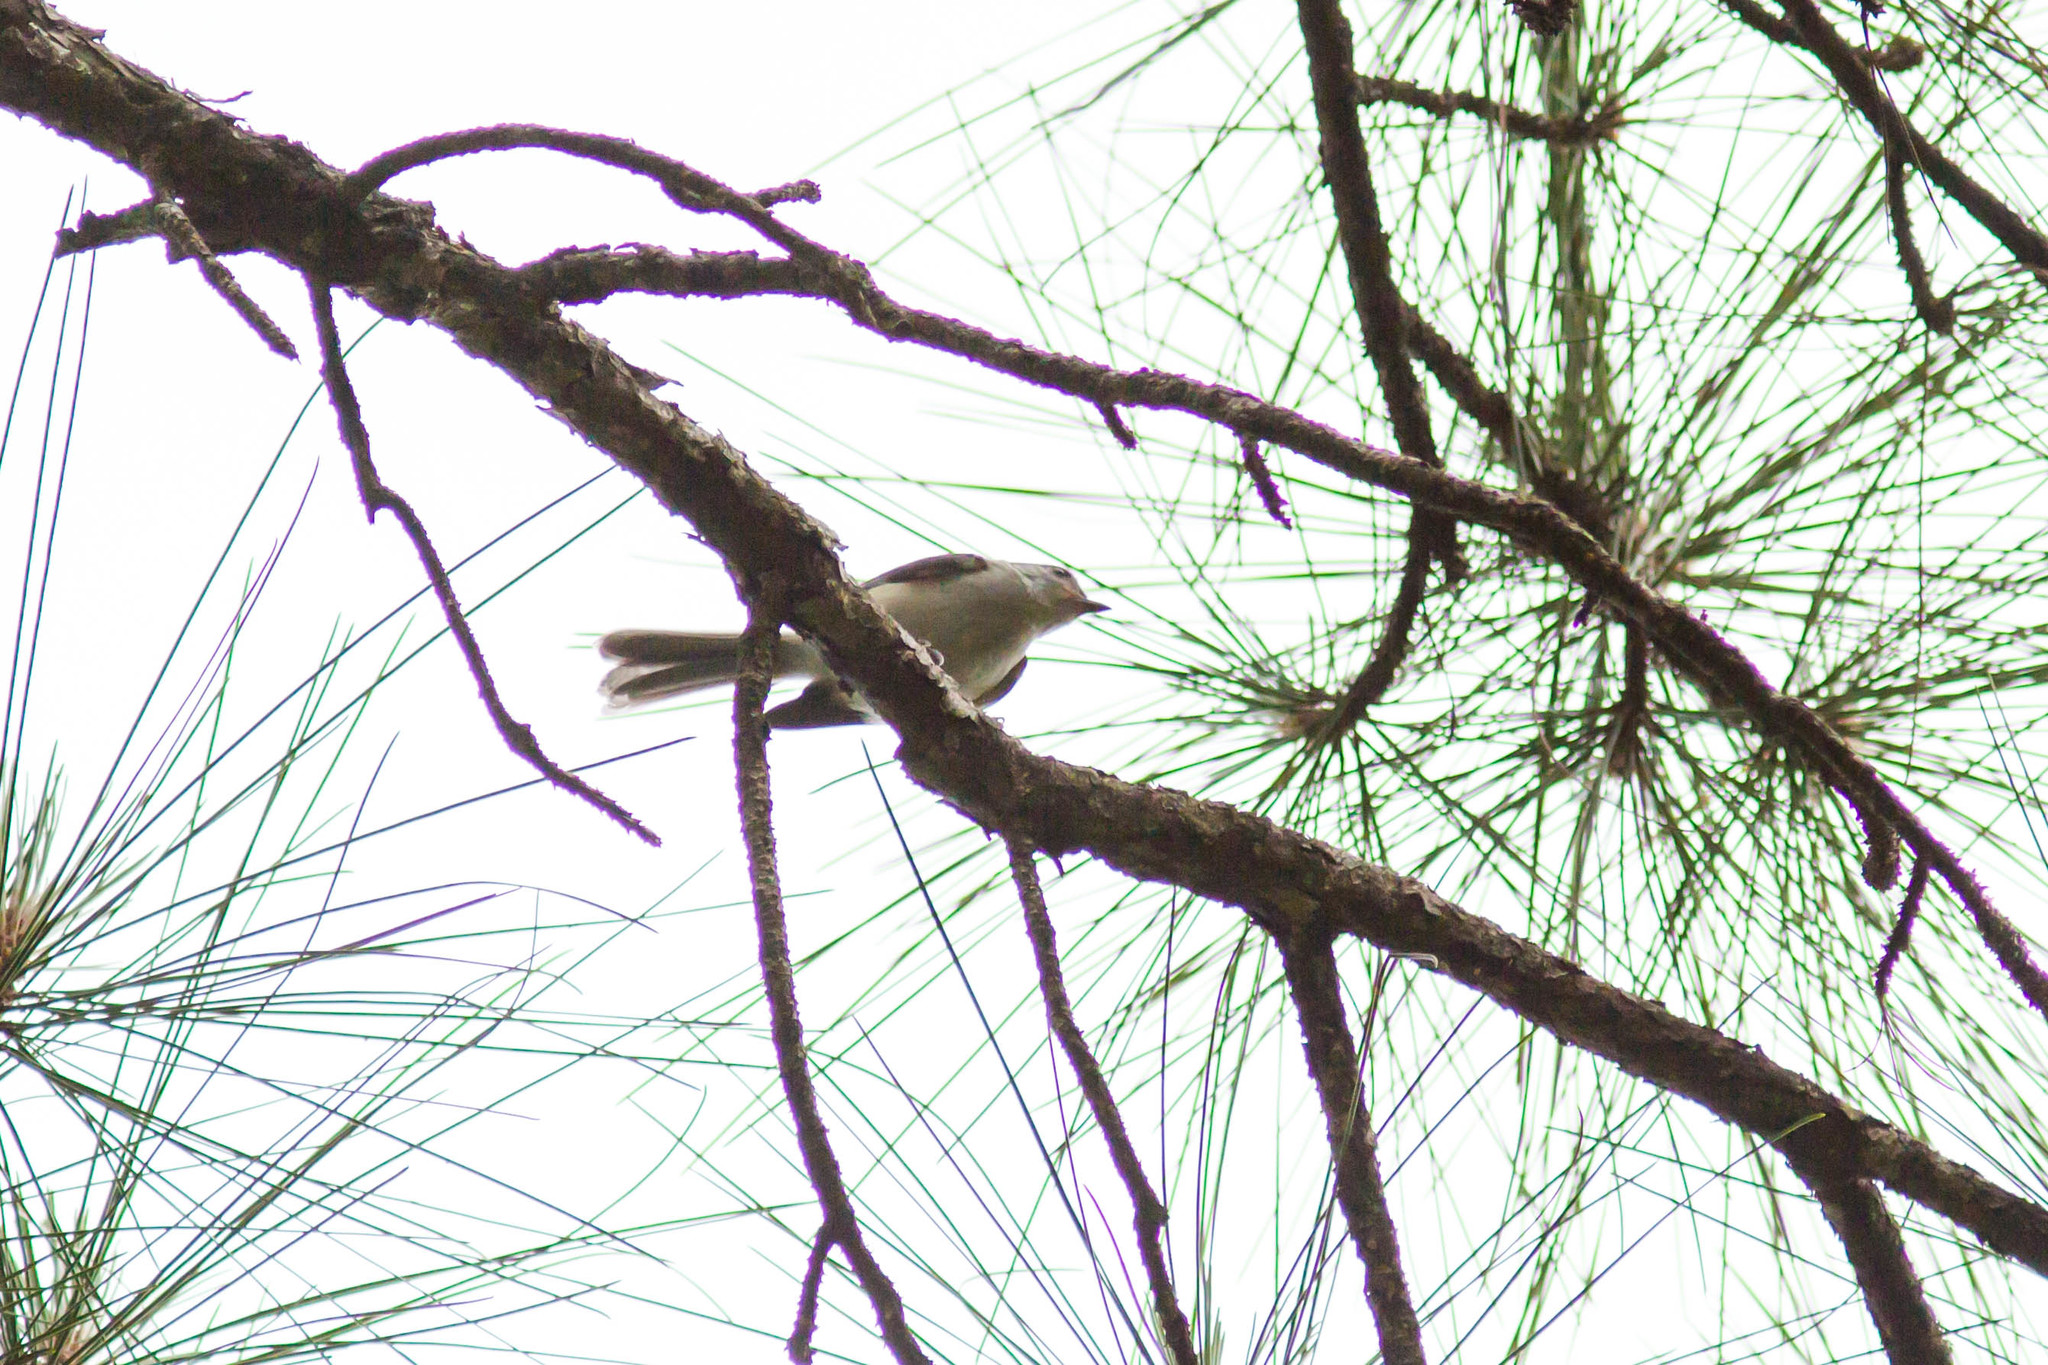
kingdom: Animalia
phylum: Chordata
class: Aves
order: Passeriformes
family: Paridae
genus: Baeolophus
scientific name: Baeolophus bicolor
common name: Tufted titmouse
